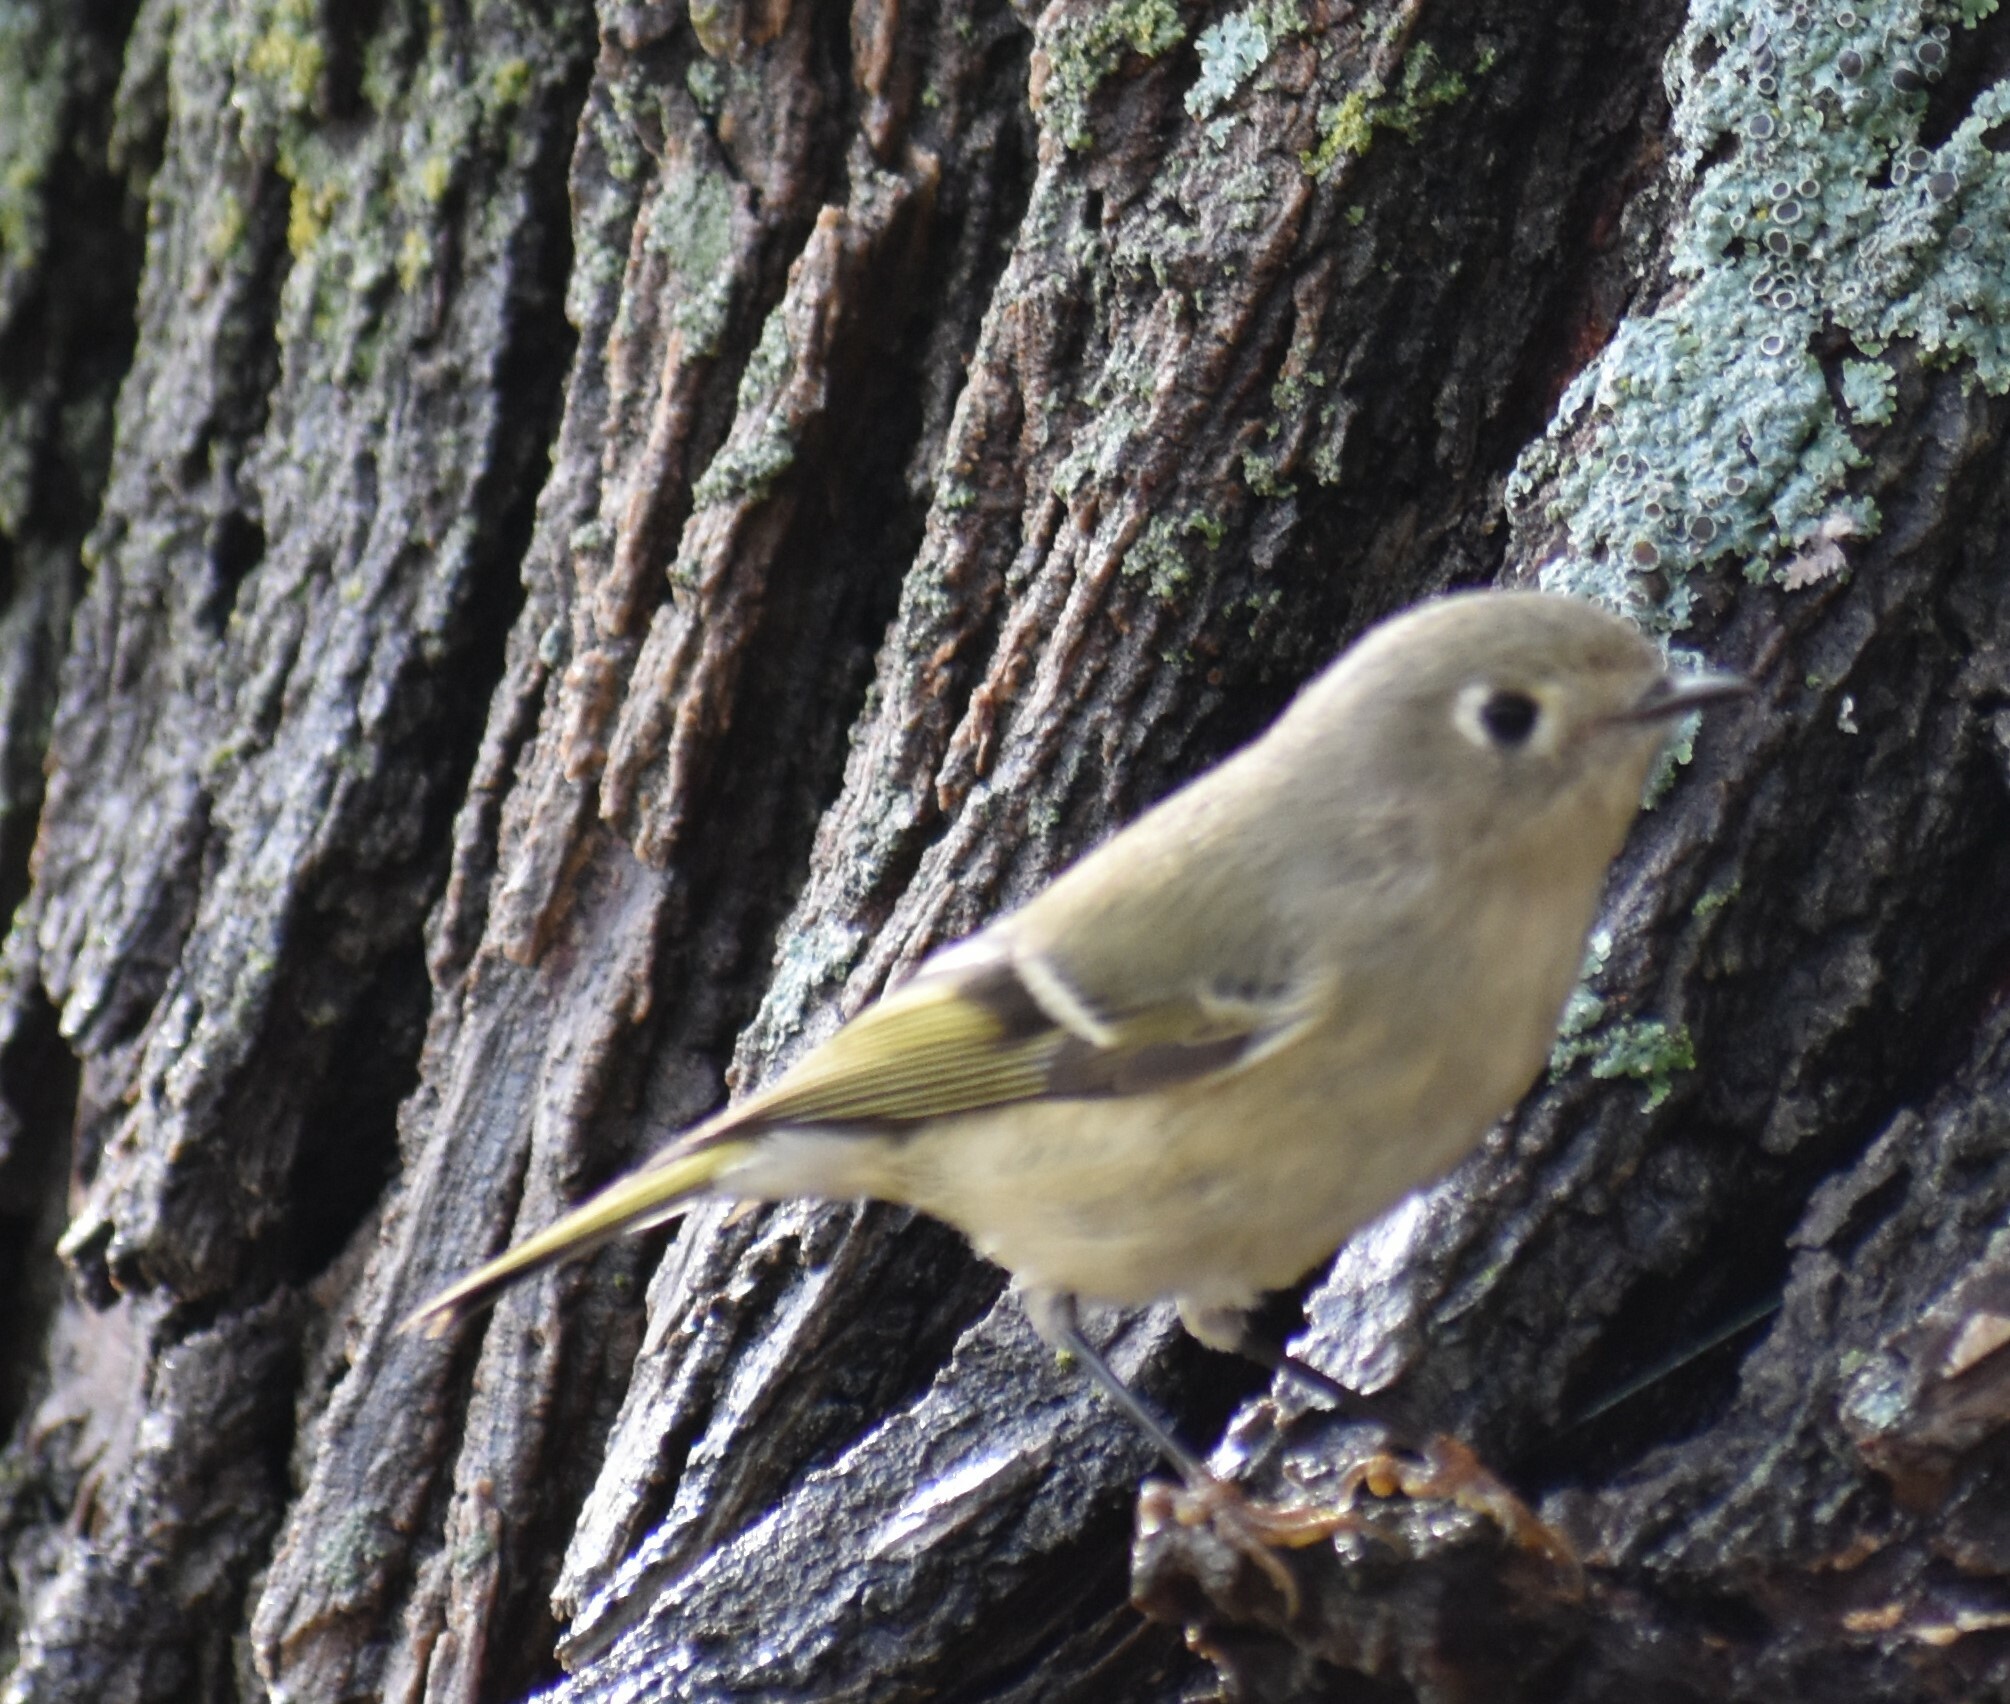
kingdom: Animalia
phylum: Chordata
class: Aves
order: Passeriformes
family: Regulidae
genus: Regulus
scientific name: Regulus calendula
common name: Ruby-crowned kinglet
